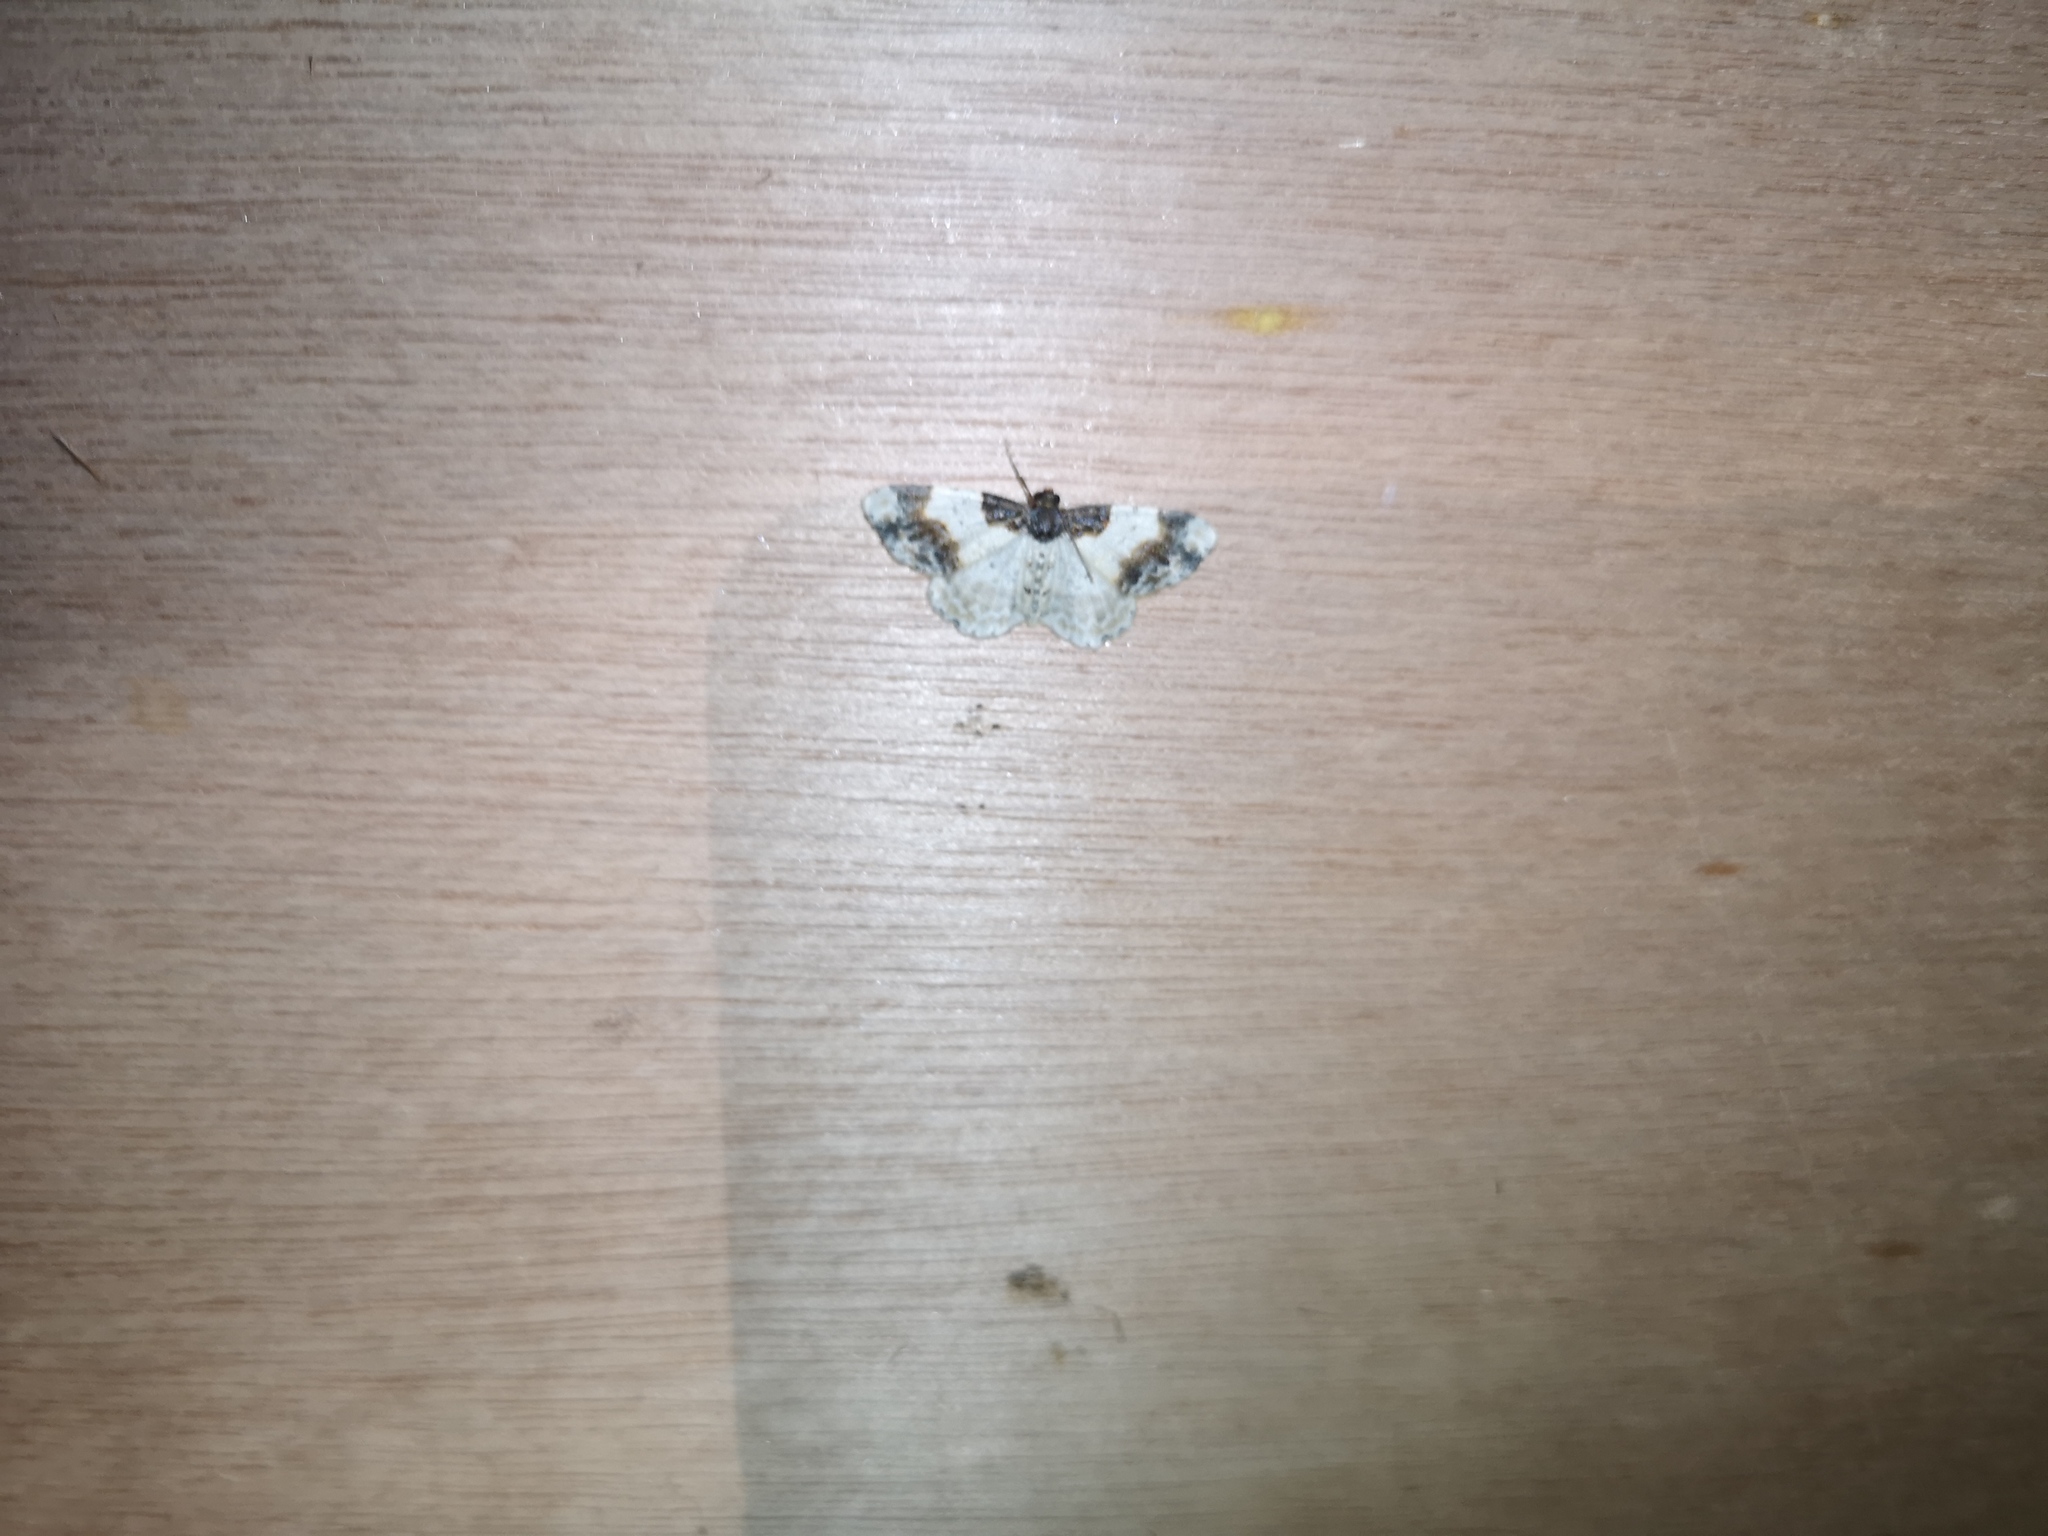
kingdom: Animalia
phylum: Arthropoda
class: Insecta
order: Lepidoptera
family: Geometridae
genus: Ligdia
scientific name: Ligdia adustata
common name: Scorched carpet
